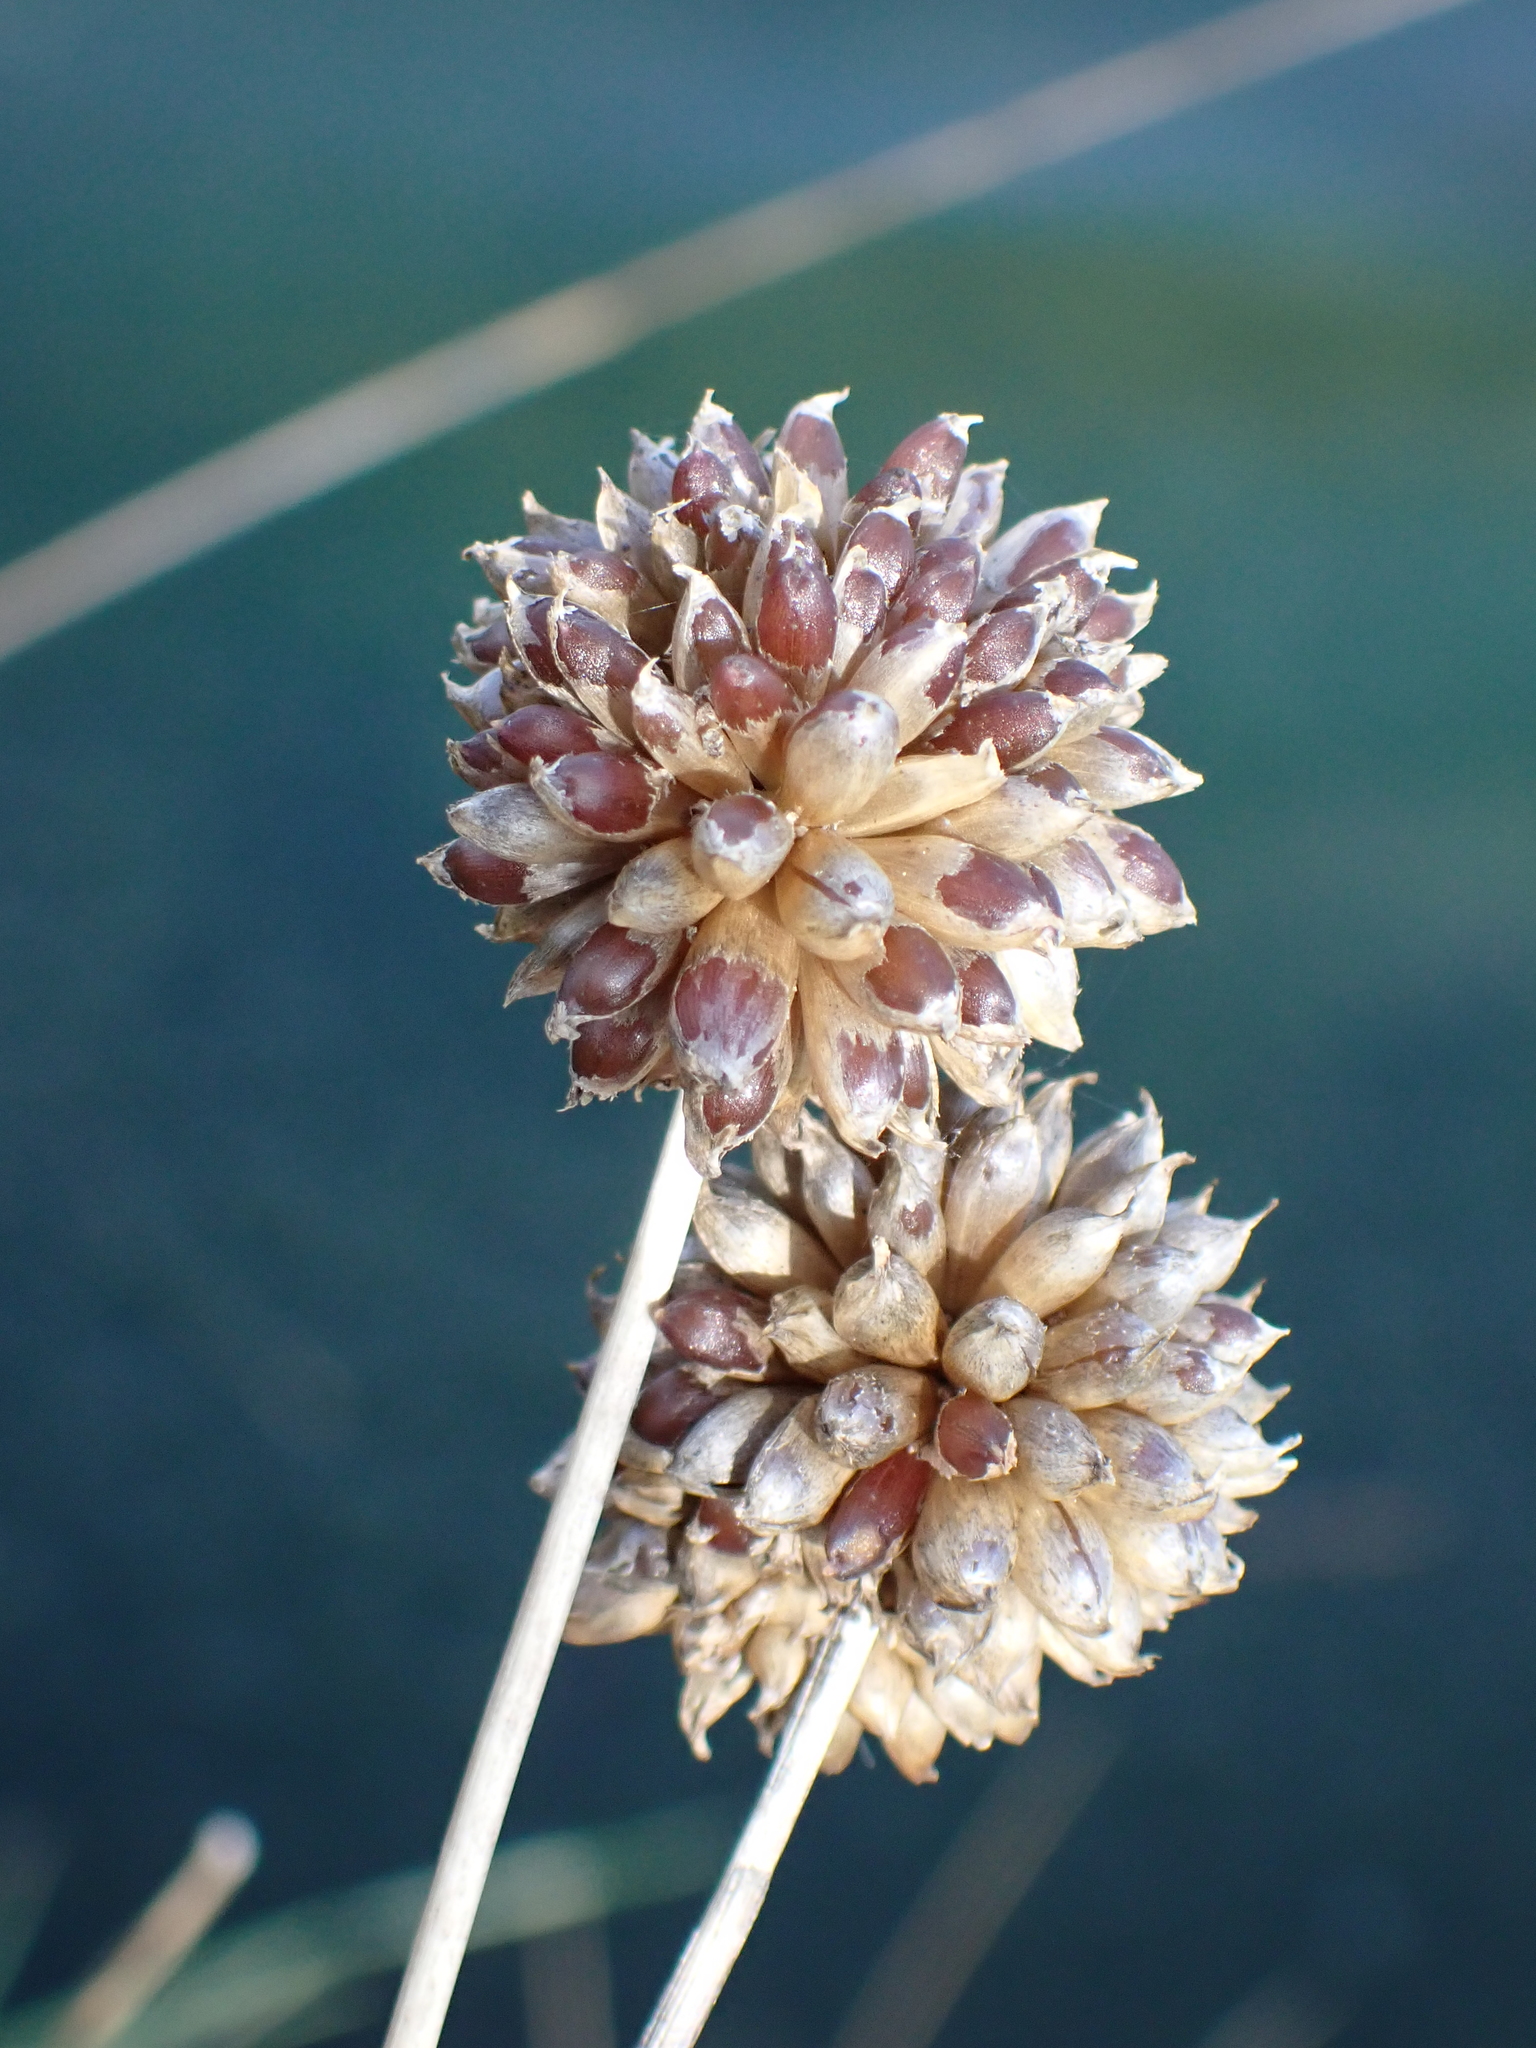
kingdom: Plantae
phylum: Tracheophyta
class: Liliopsida
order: Asparagales
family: Amaryllidaceae
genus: Allium
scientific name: Allium vineale
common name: Crow garlic
